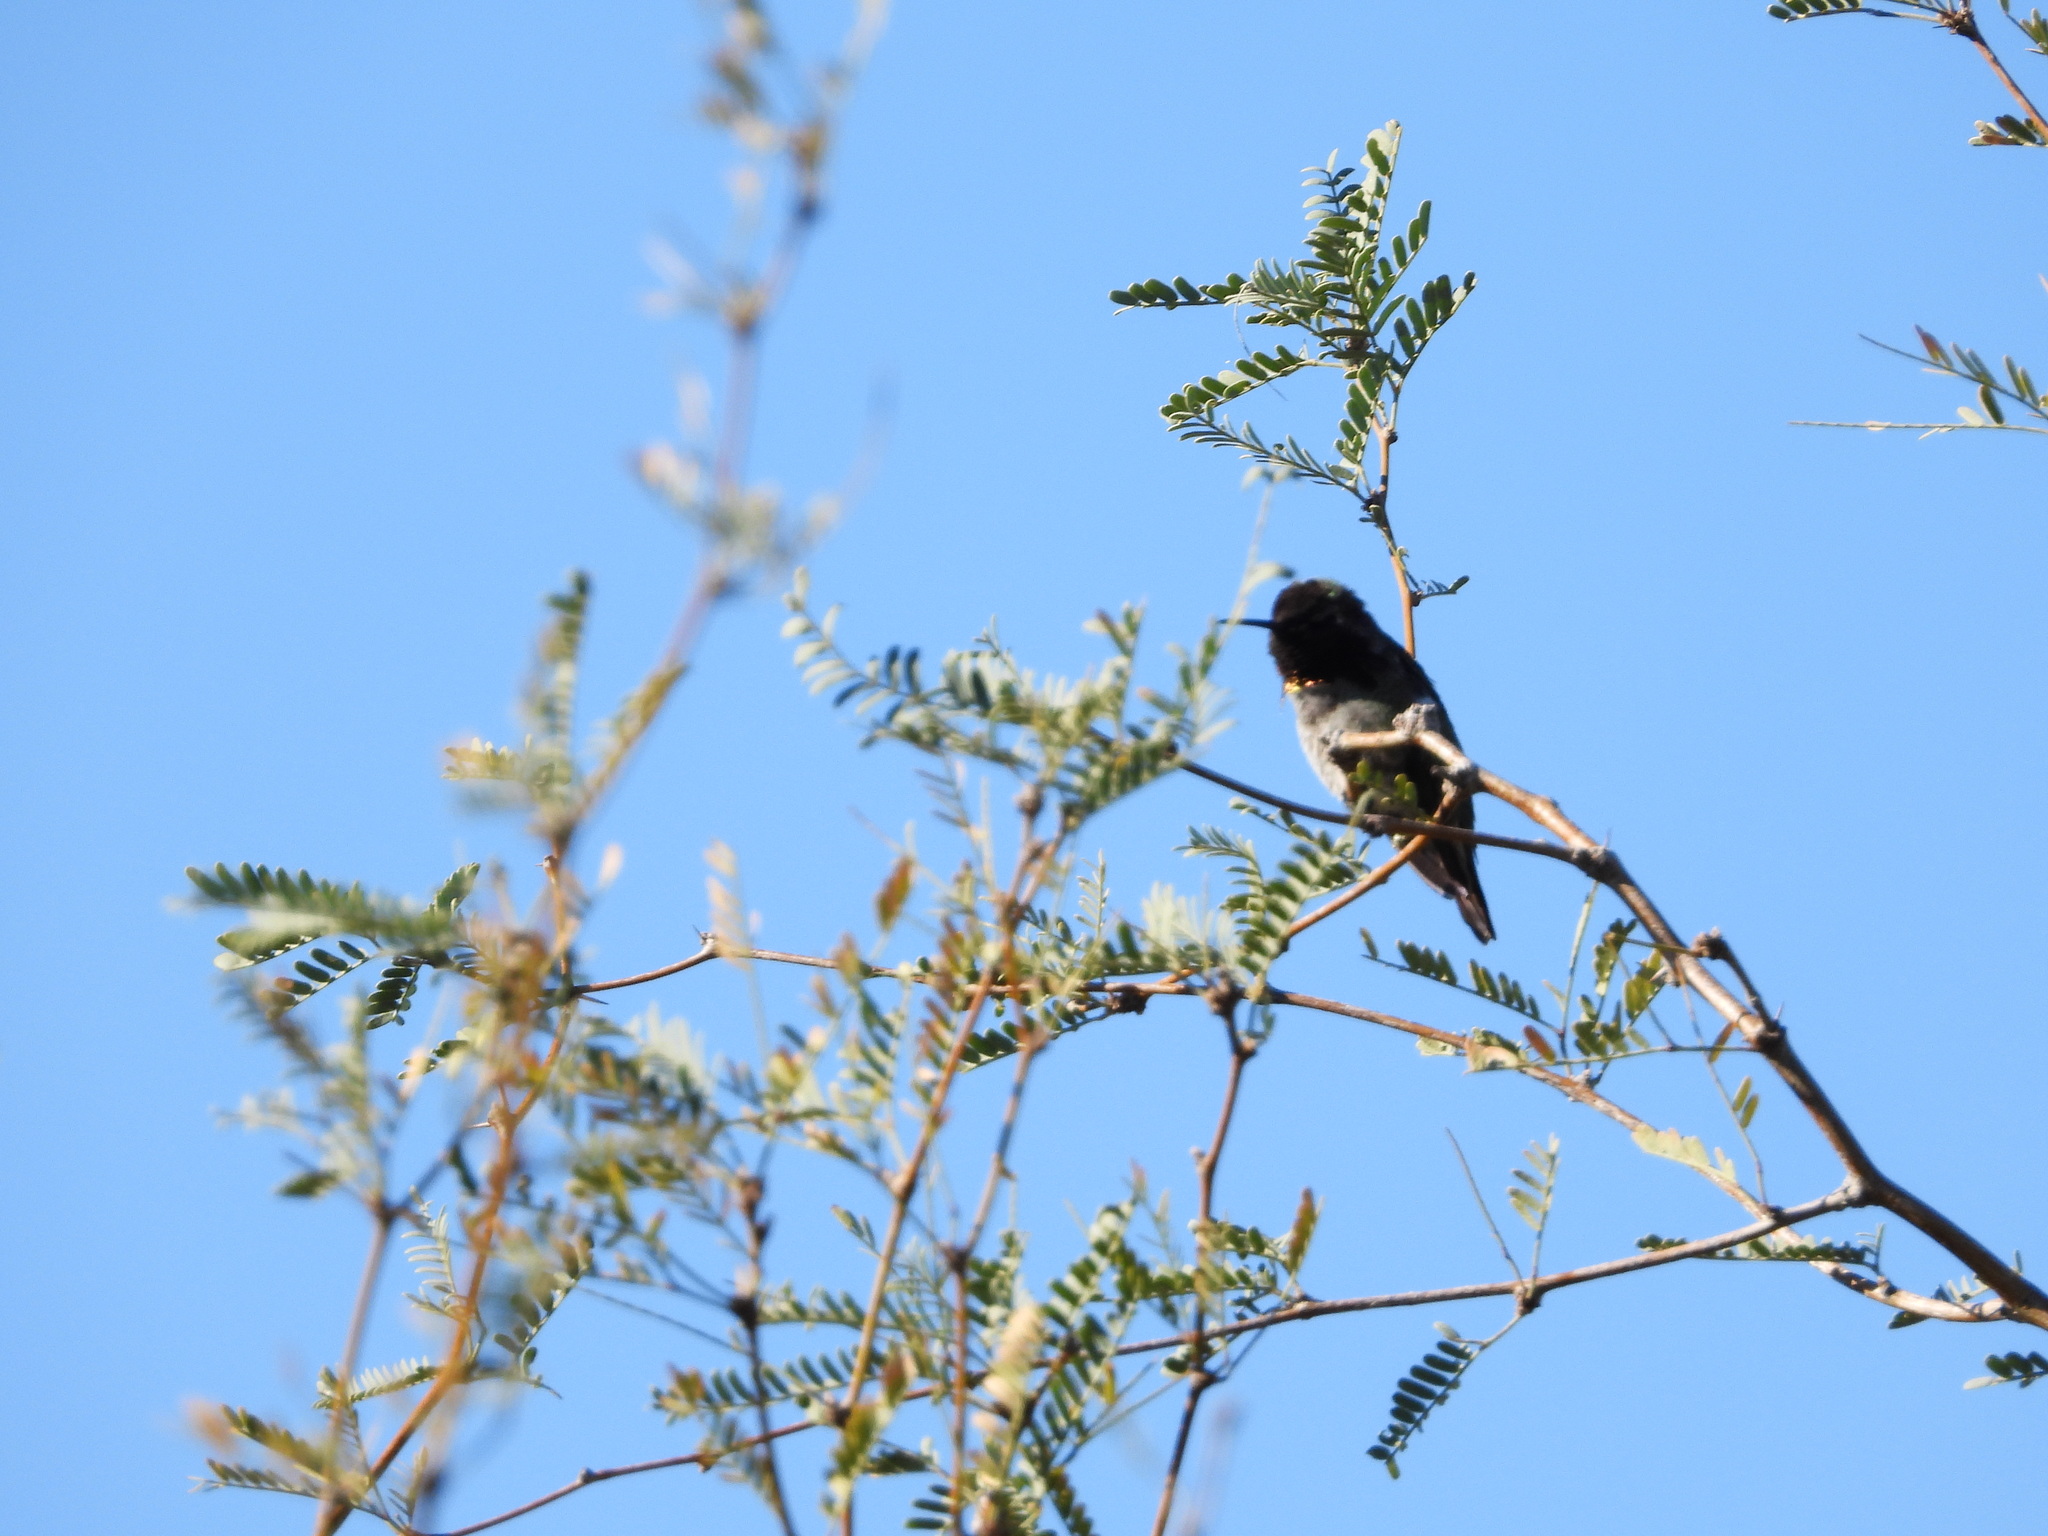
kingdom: Animalia
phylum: Chordata
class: Aves
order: Apodiformes
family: Trochilidae
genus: Calypte
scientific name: Calypte anna
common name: Anna's hummingbird
